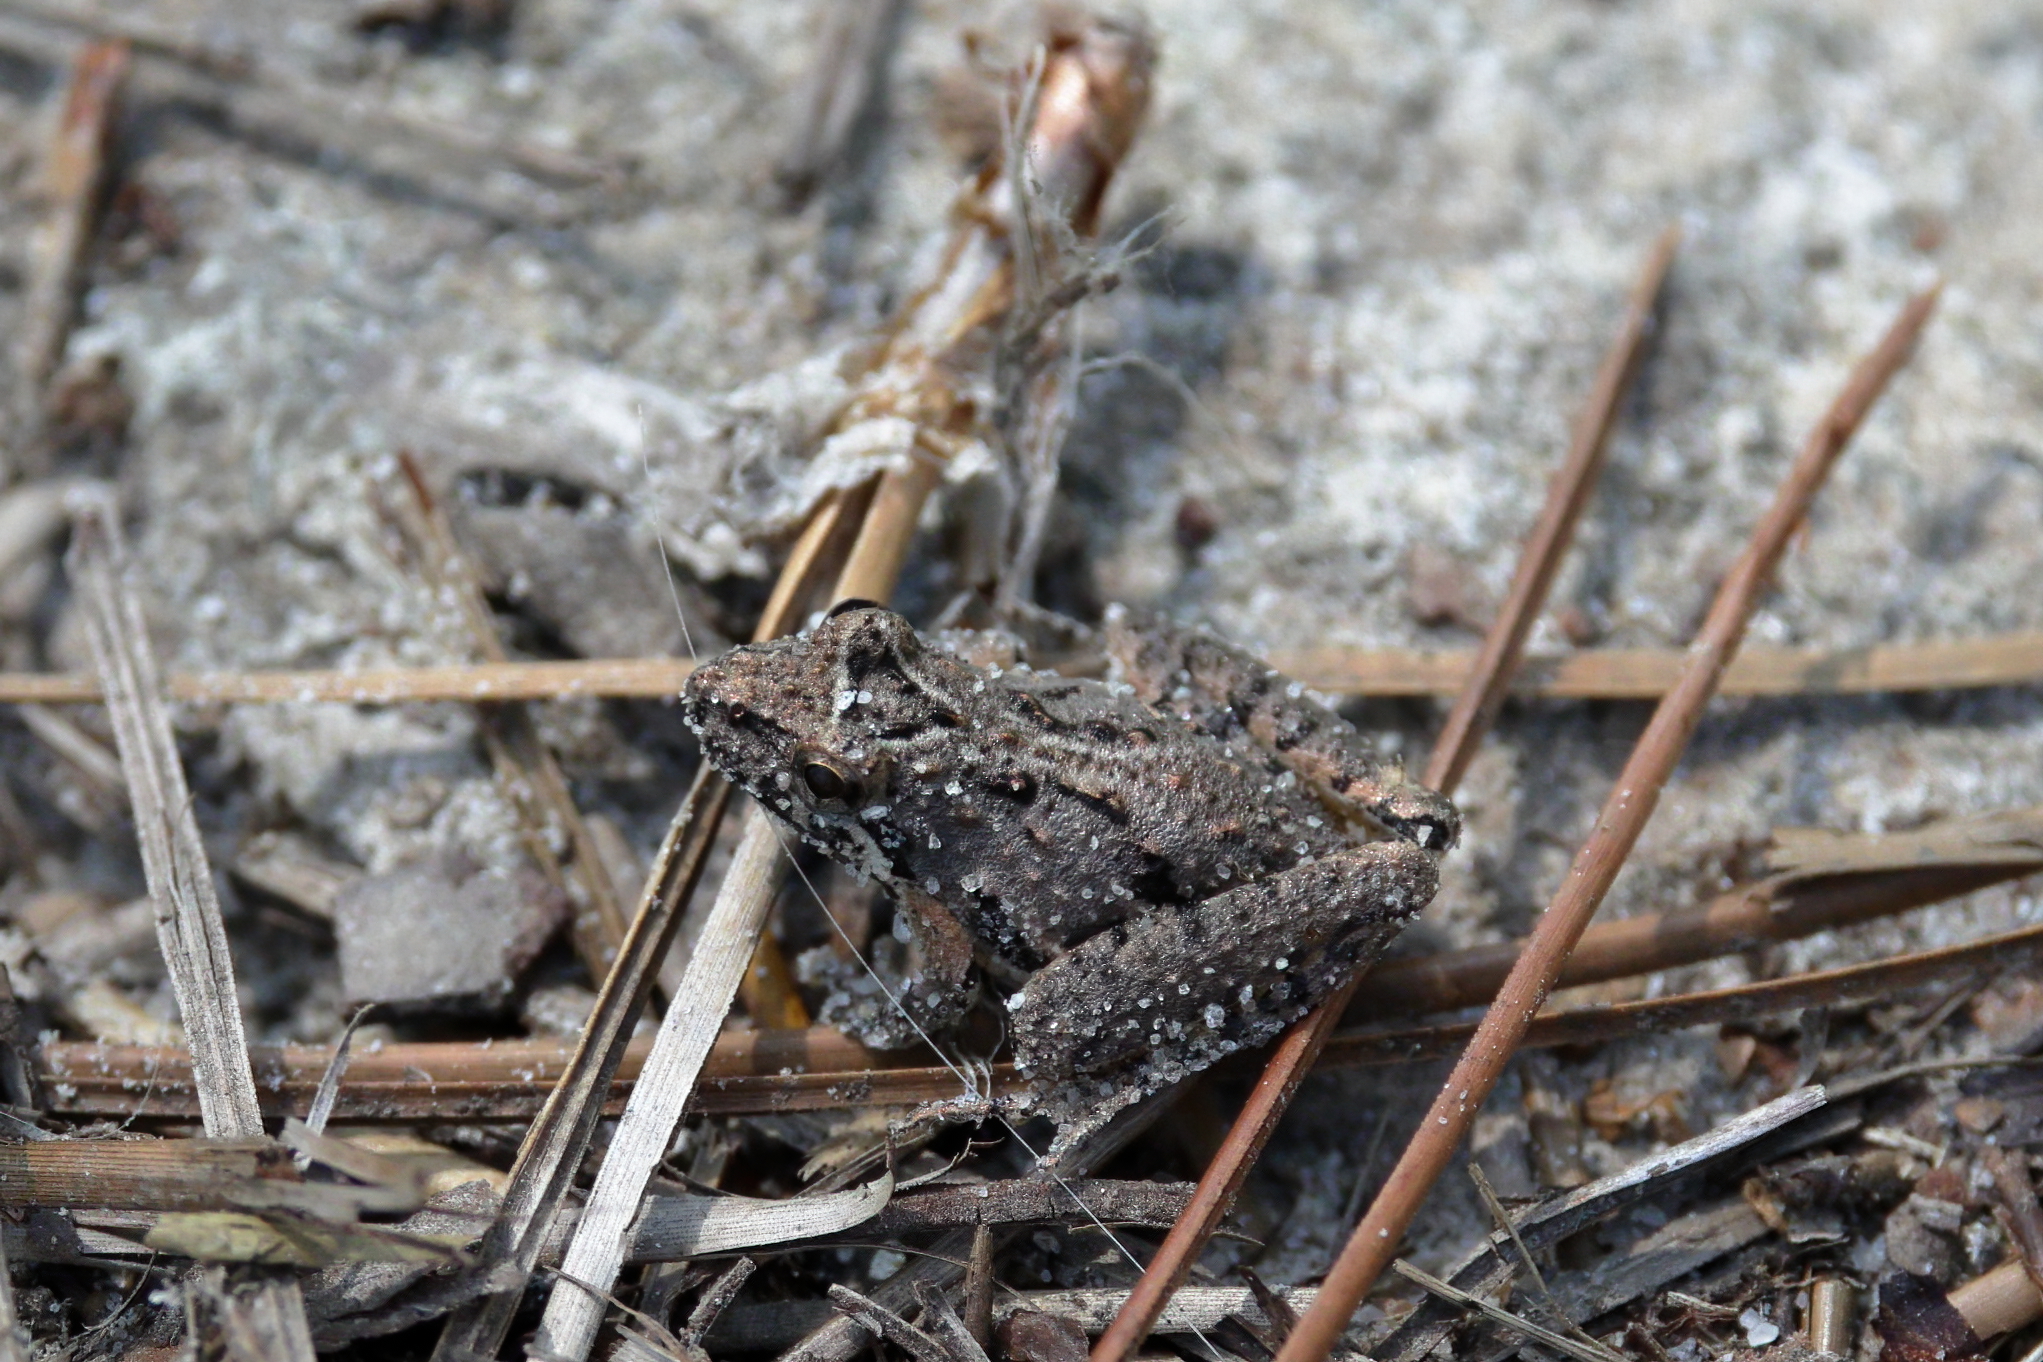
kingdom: Animalia
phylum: Chordata
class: Amphibia
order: Anura
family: Hylidae
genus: Acris
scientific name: Acris gryllus
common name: Southern cricket frog
